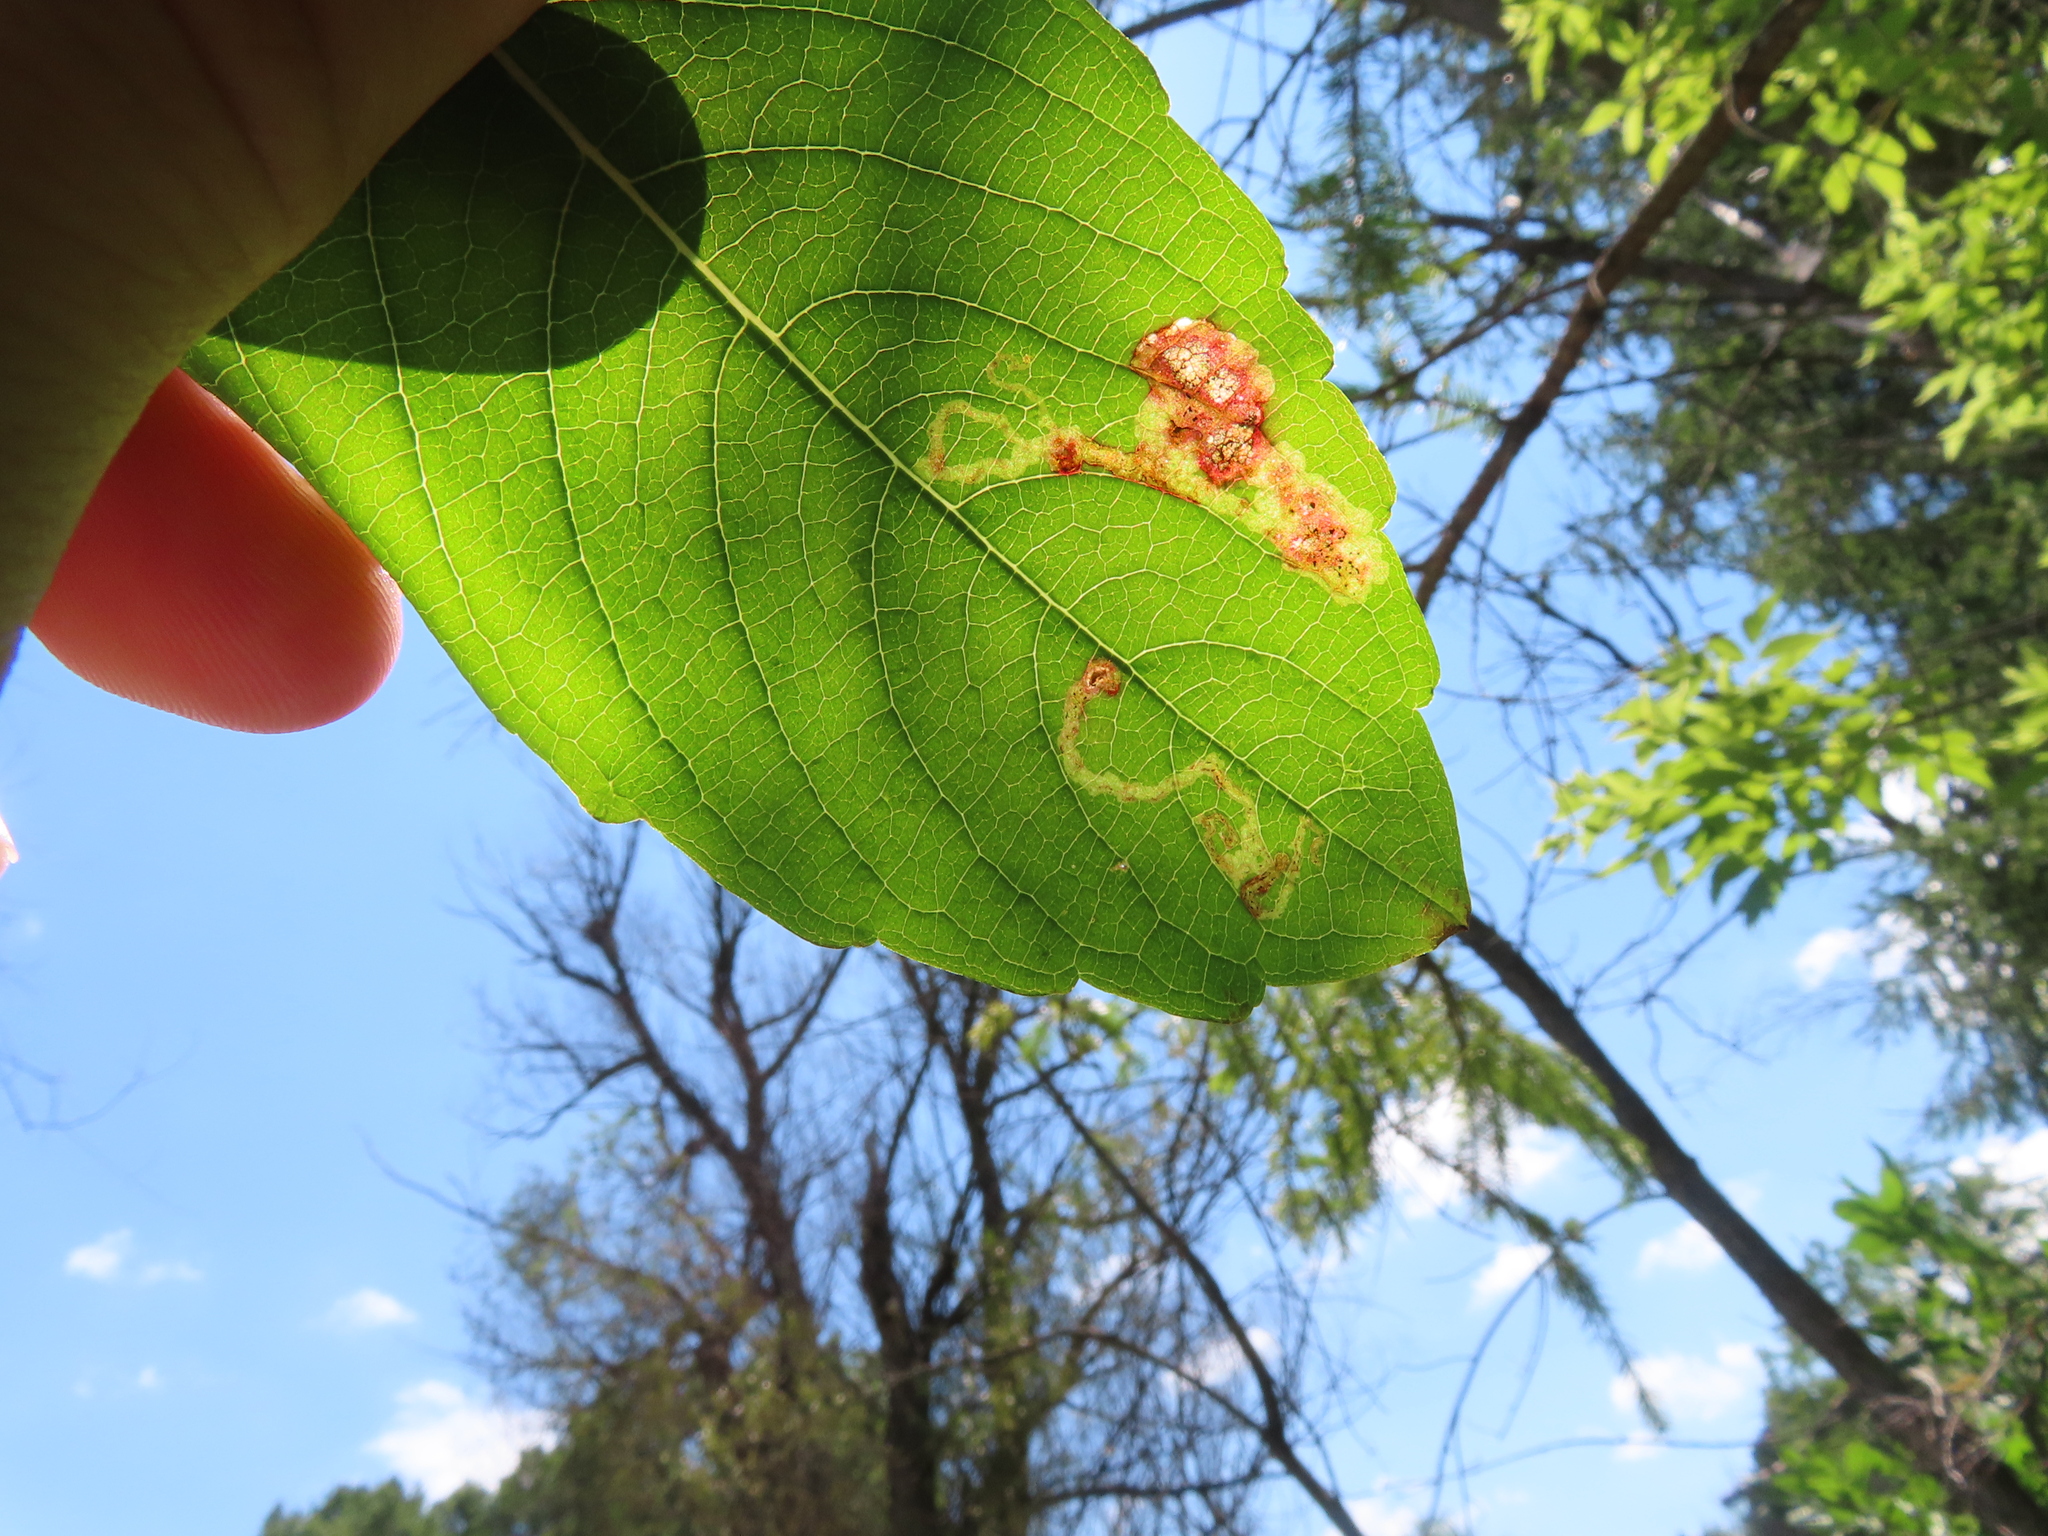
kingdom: Animalia
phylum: Arthropoda
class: Insecta
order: Diptera
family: Agromyzidae
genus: Phytoliriomyza
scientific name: Phytoliriomyza melampyga
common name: Jewelweed leaf-miner fly
